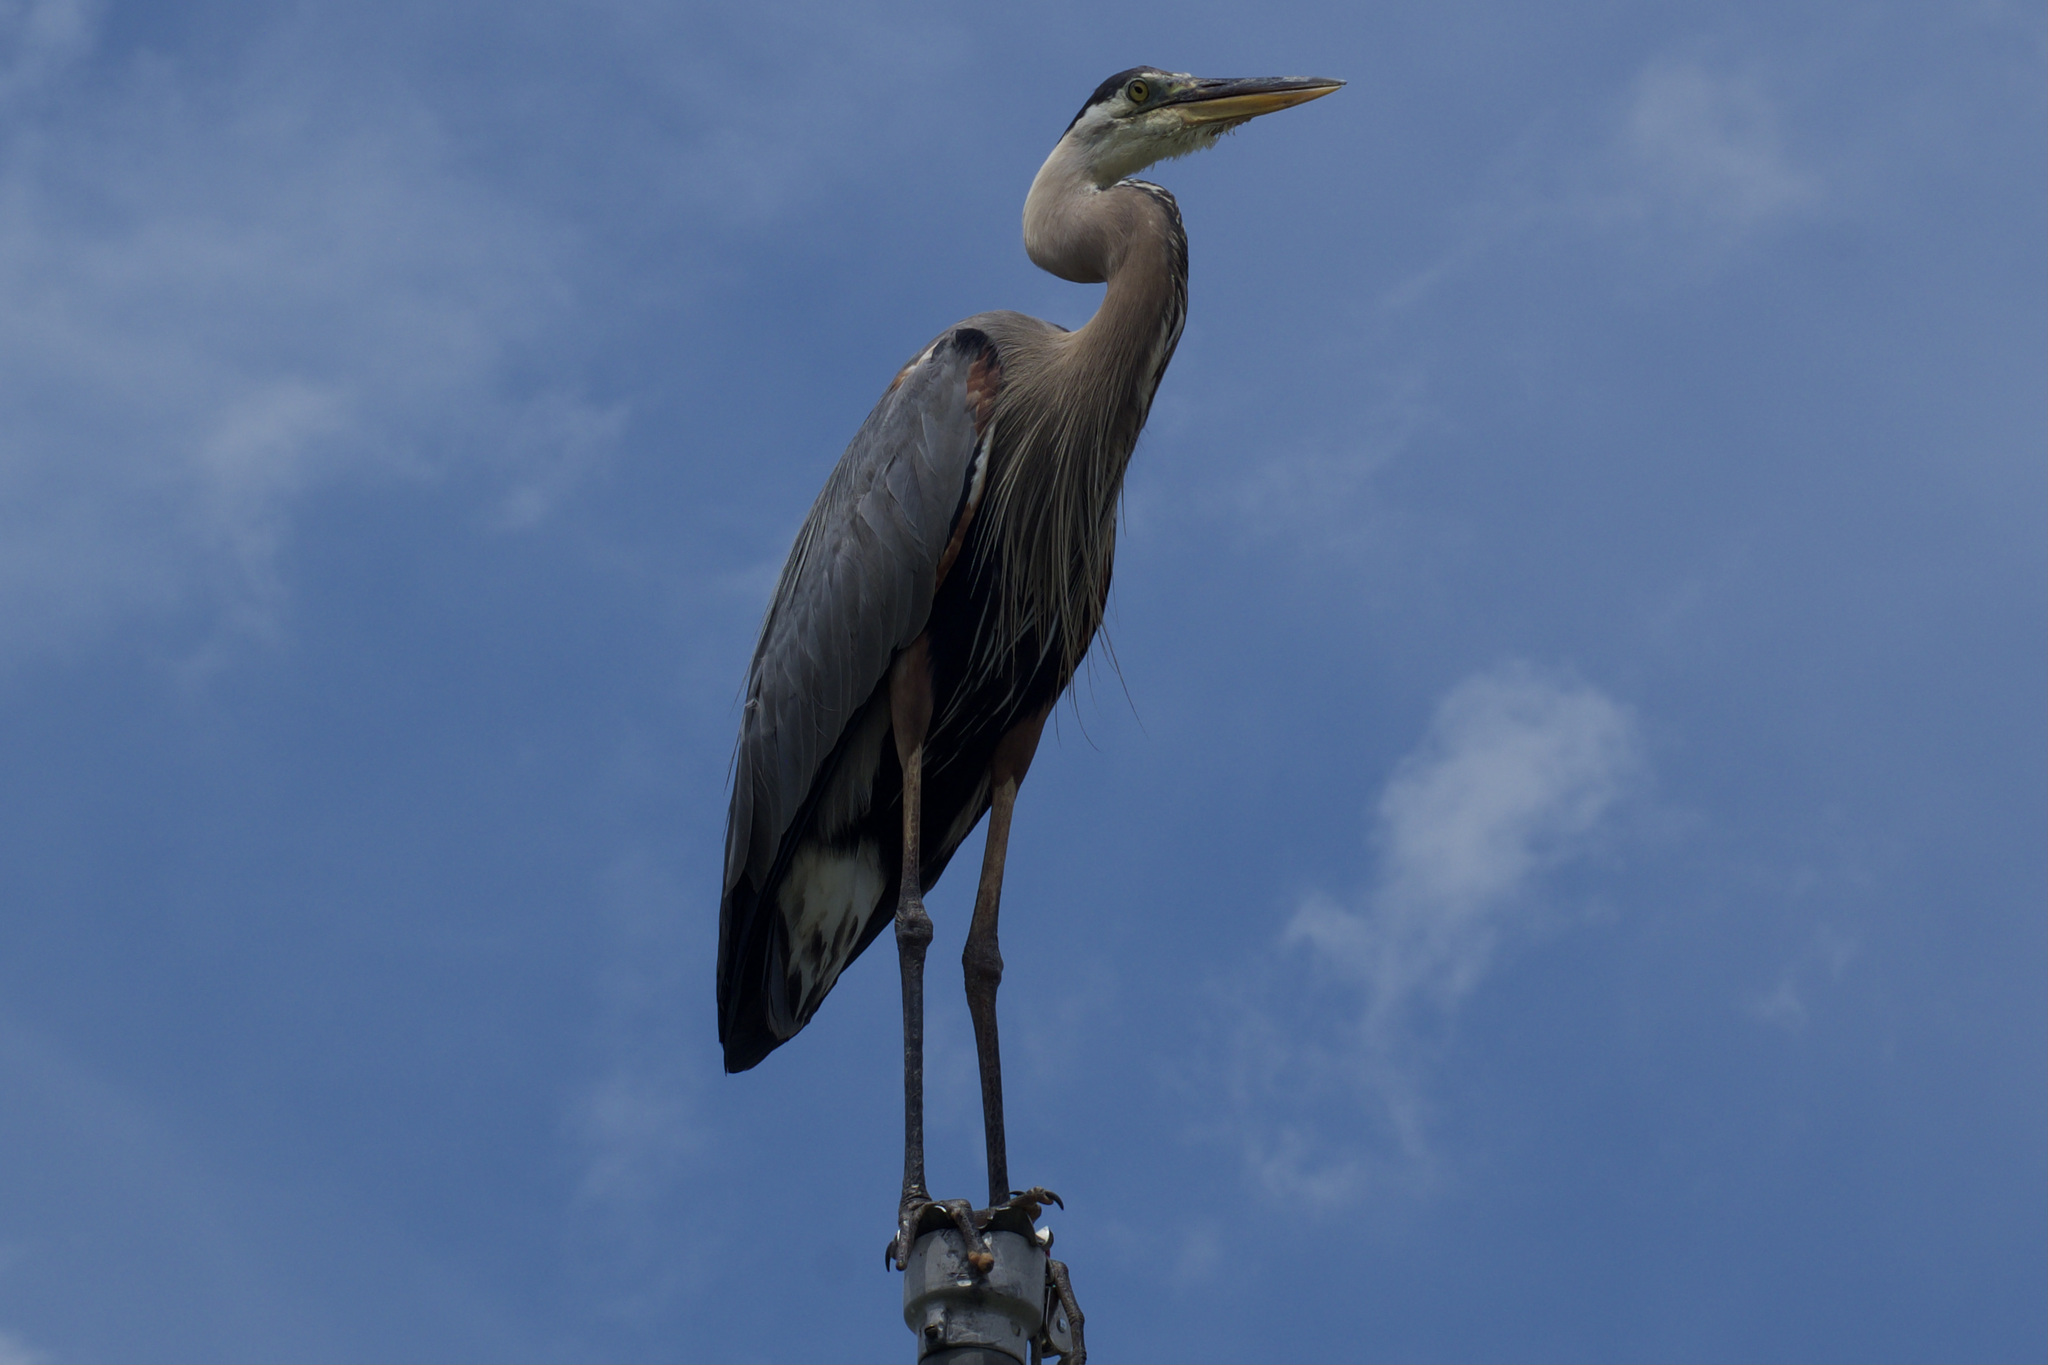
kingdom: Animalia
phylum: Chordata
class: Aves
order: Pelecaniformes
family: Ardeidae
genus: Ardea
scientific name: Ardea herodias
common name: Great blue heron
